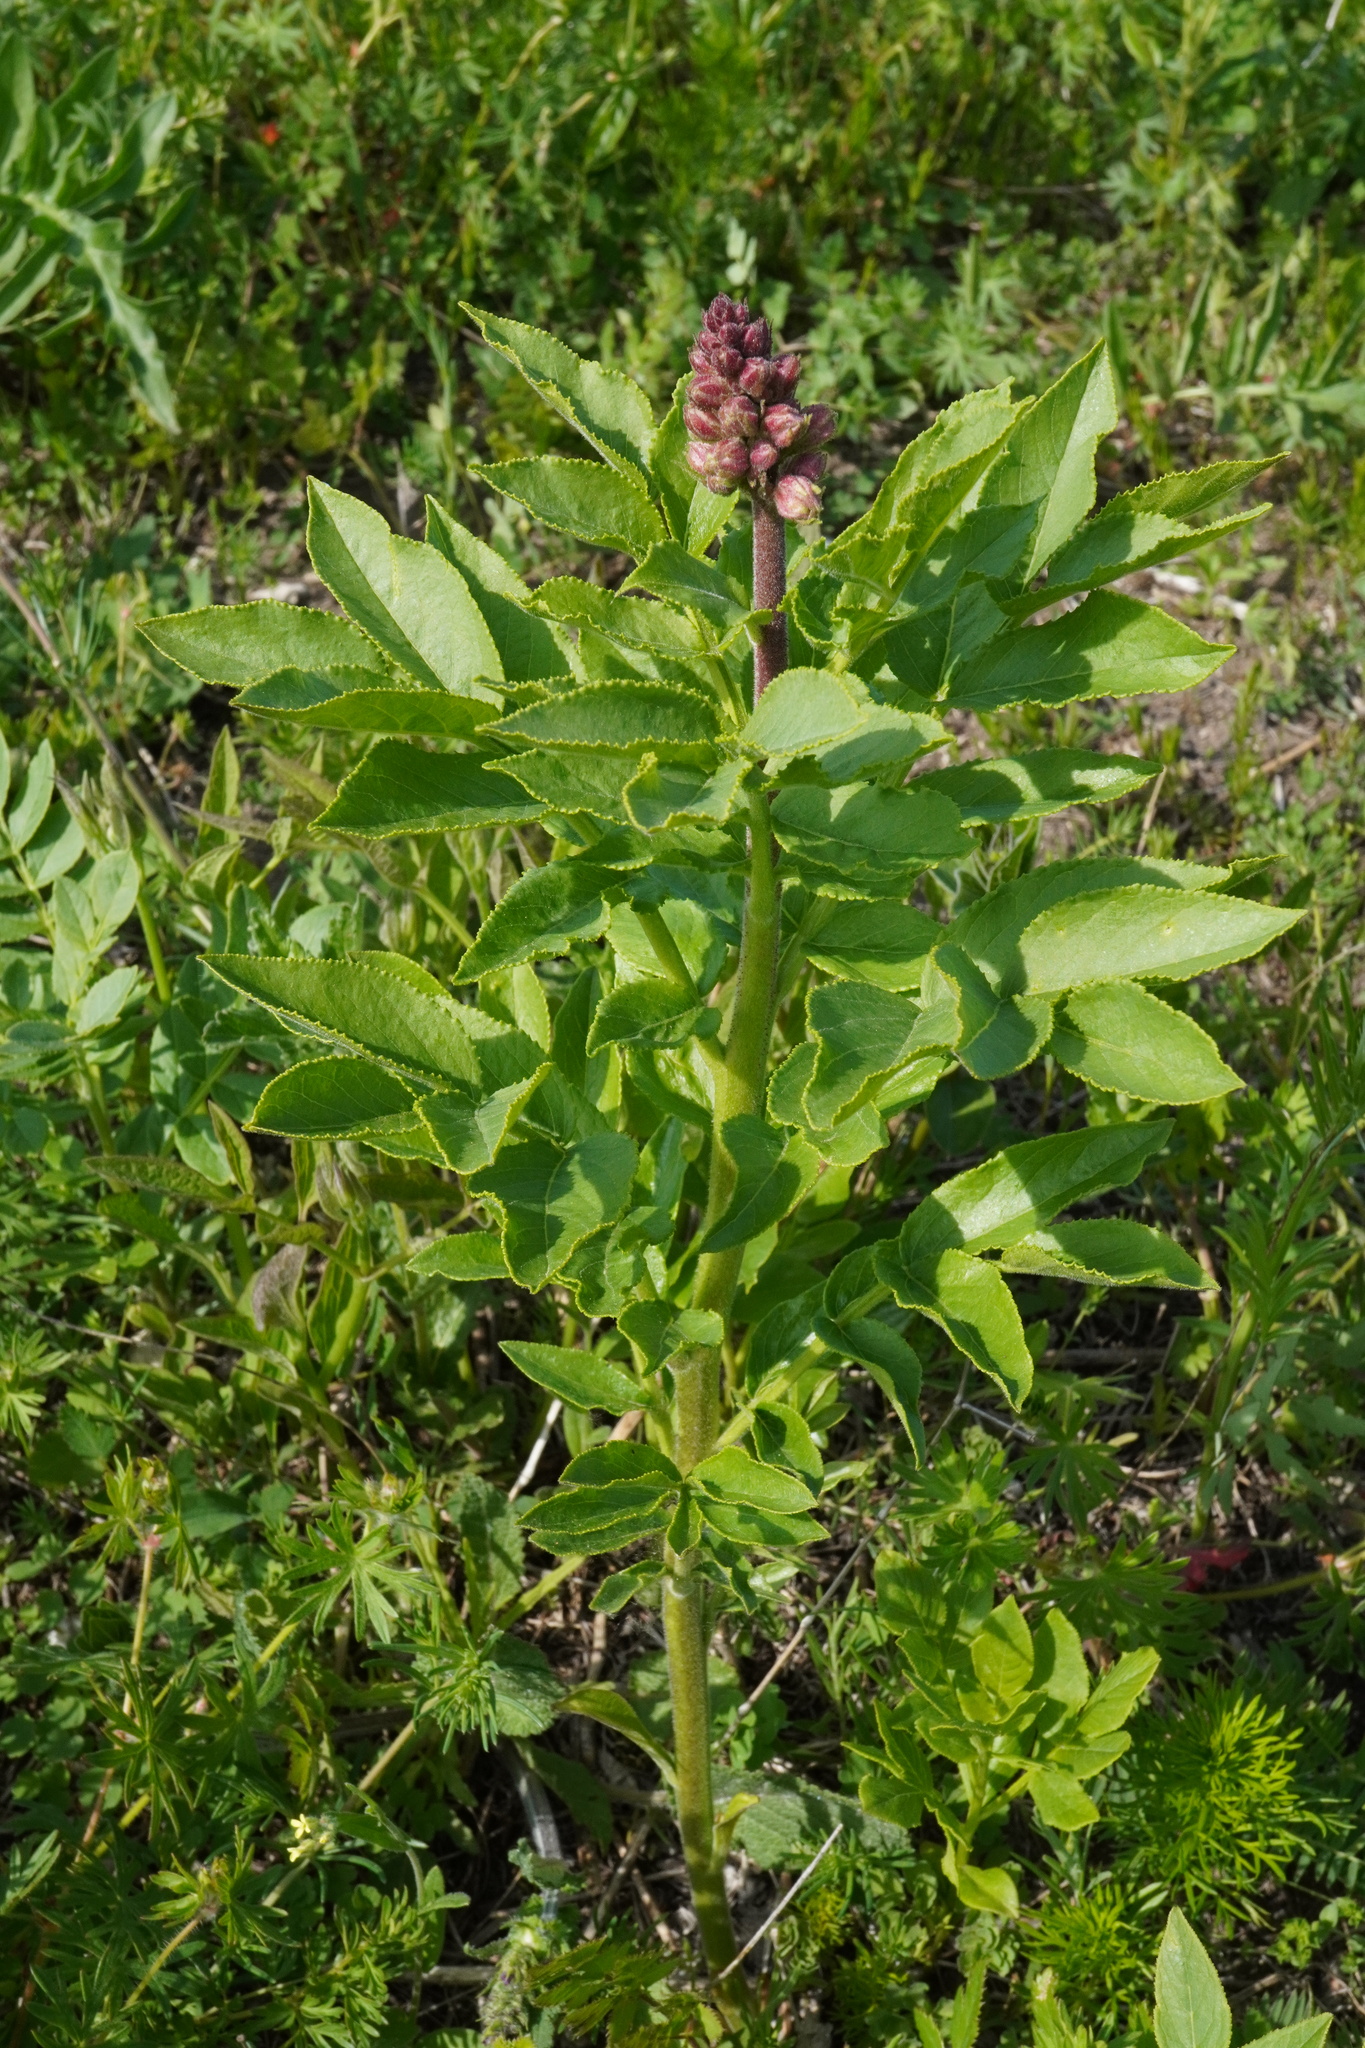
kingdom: Plantae
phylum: Tracheophyta
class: Magnoliopsida
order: Sapindales
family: Rutaceae
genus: Dictamnus
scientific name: Dictamnus albus
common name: Gasplant
